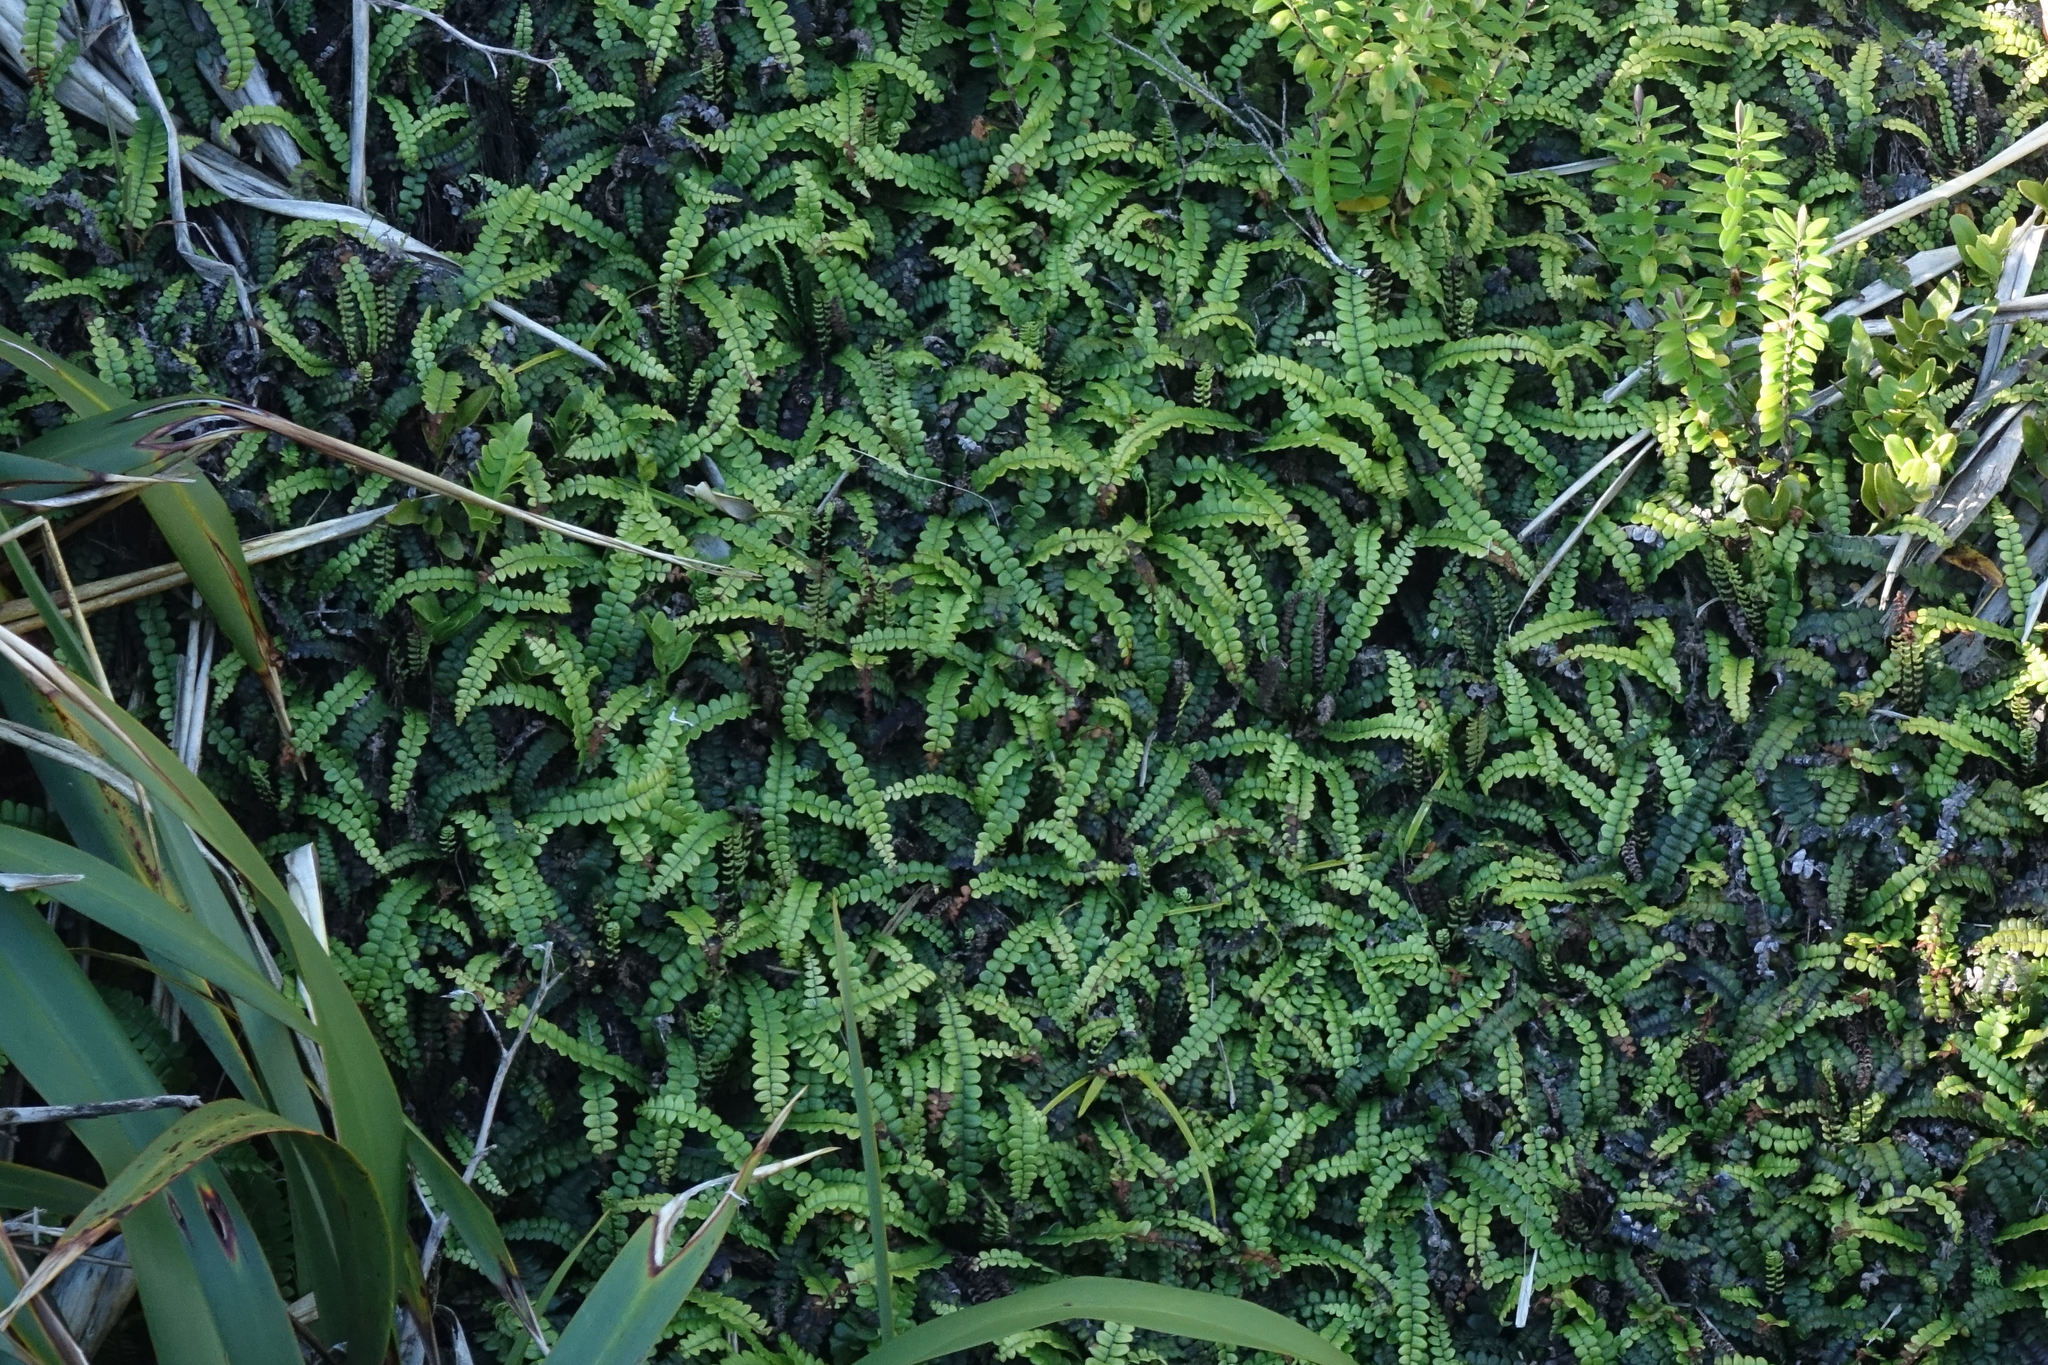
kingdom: Plantae
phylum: Tracheophyta
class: Polypodiopsida
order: Polypodiales
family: Blechnaceae
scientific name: Blechnaceae
